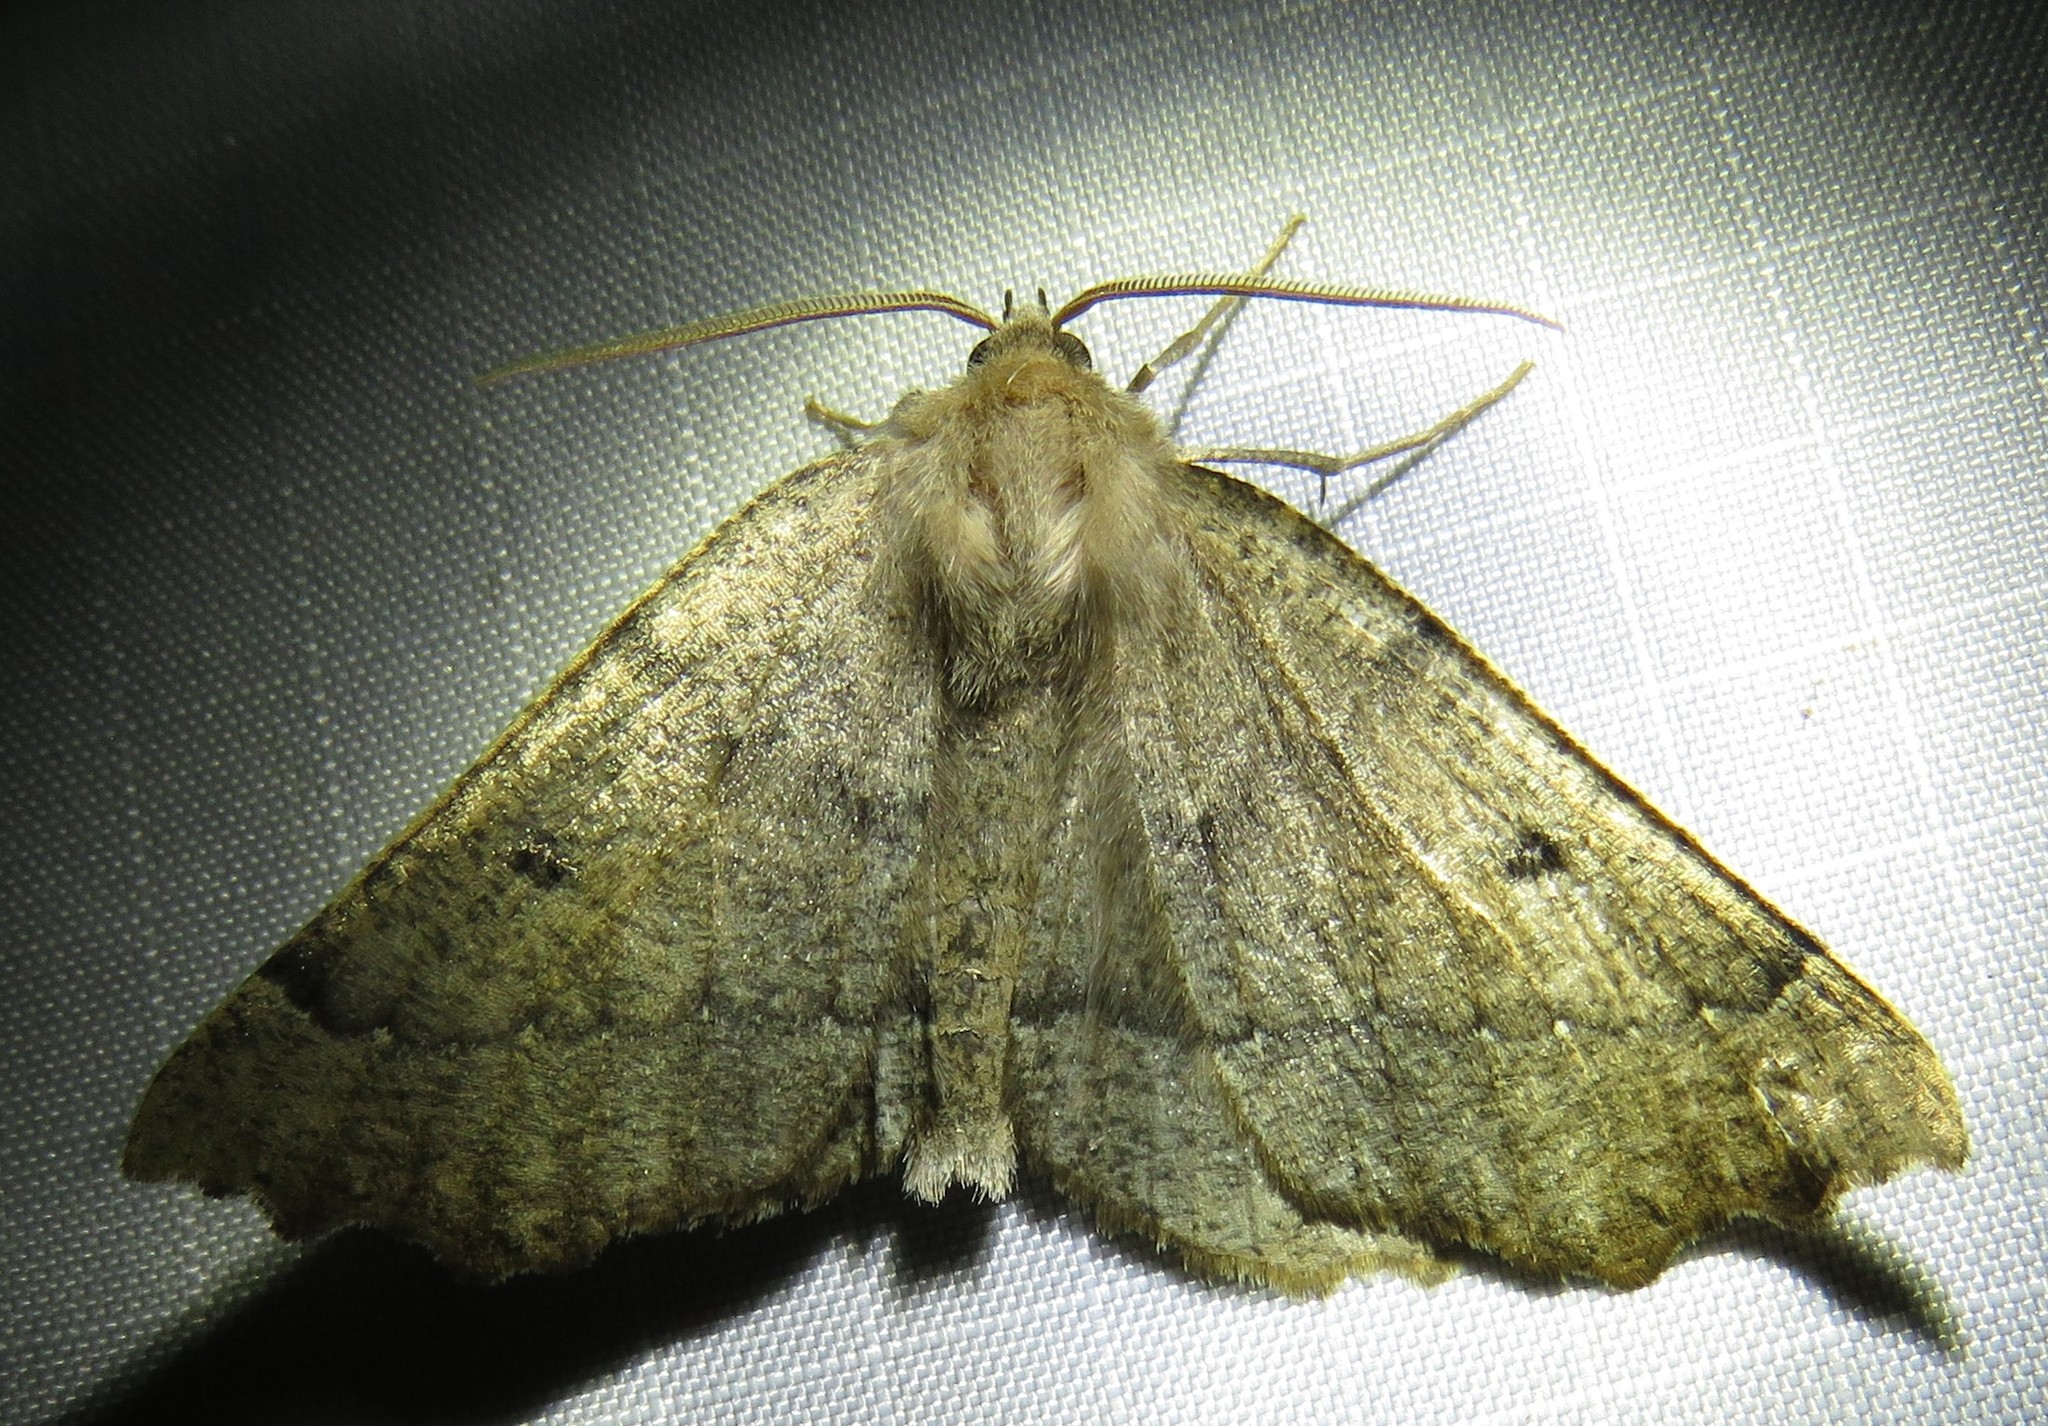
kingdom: Animalia
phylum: Arthropoda
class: Insecta
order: Lepidoptera
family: Geometridae
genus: Odontopera
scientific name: Odontopera bidentata
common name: Scalloped hazel
